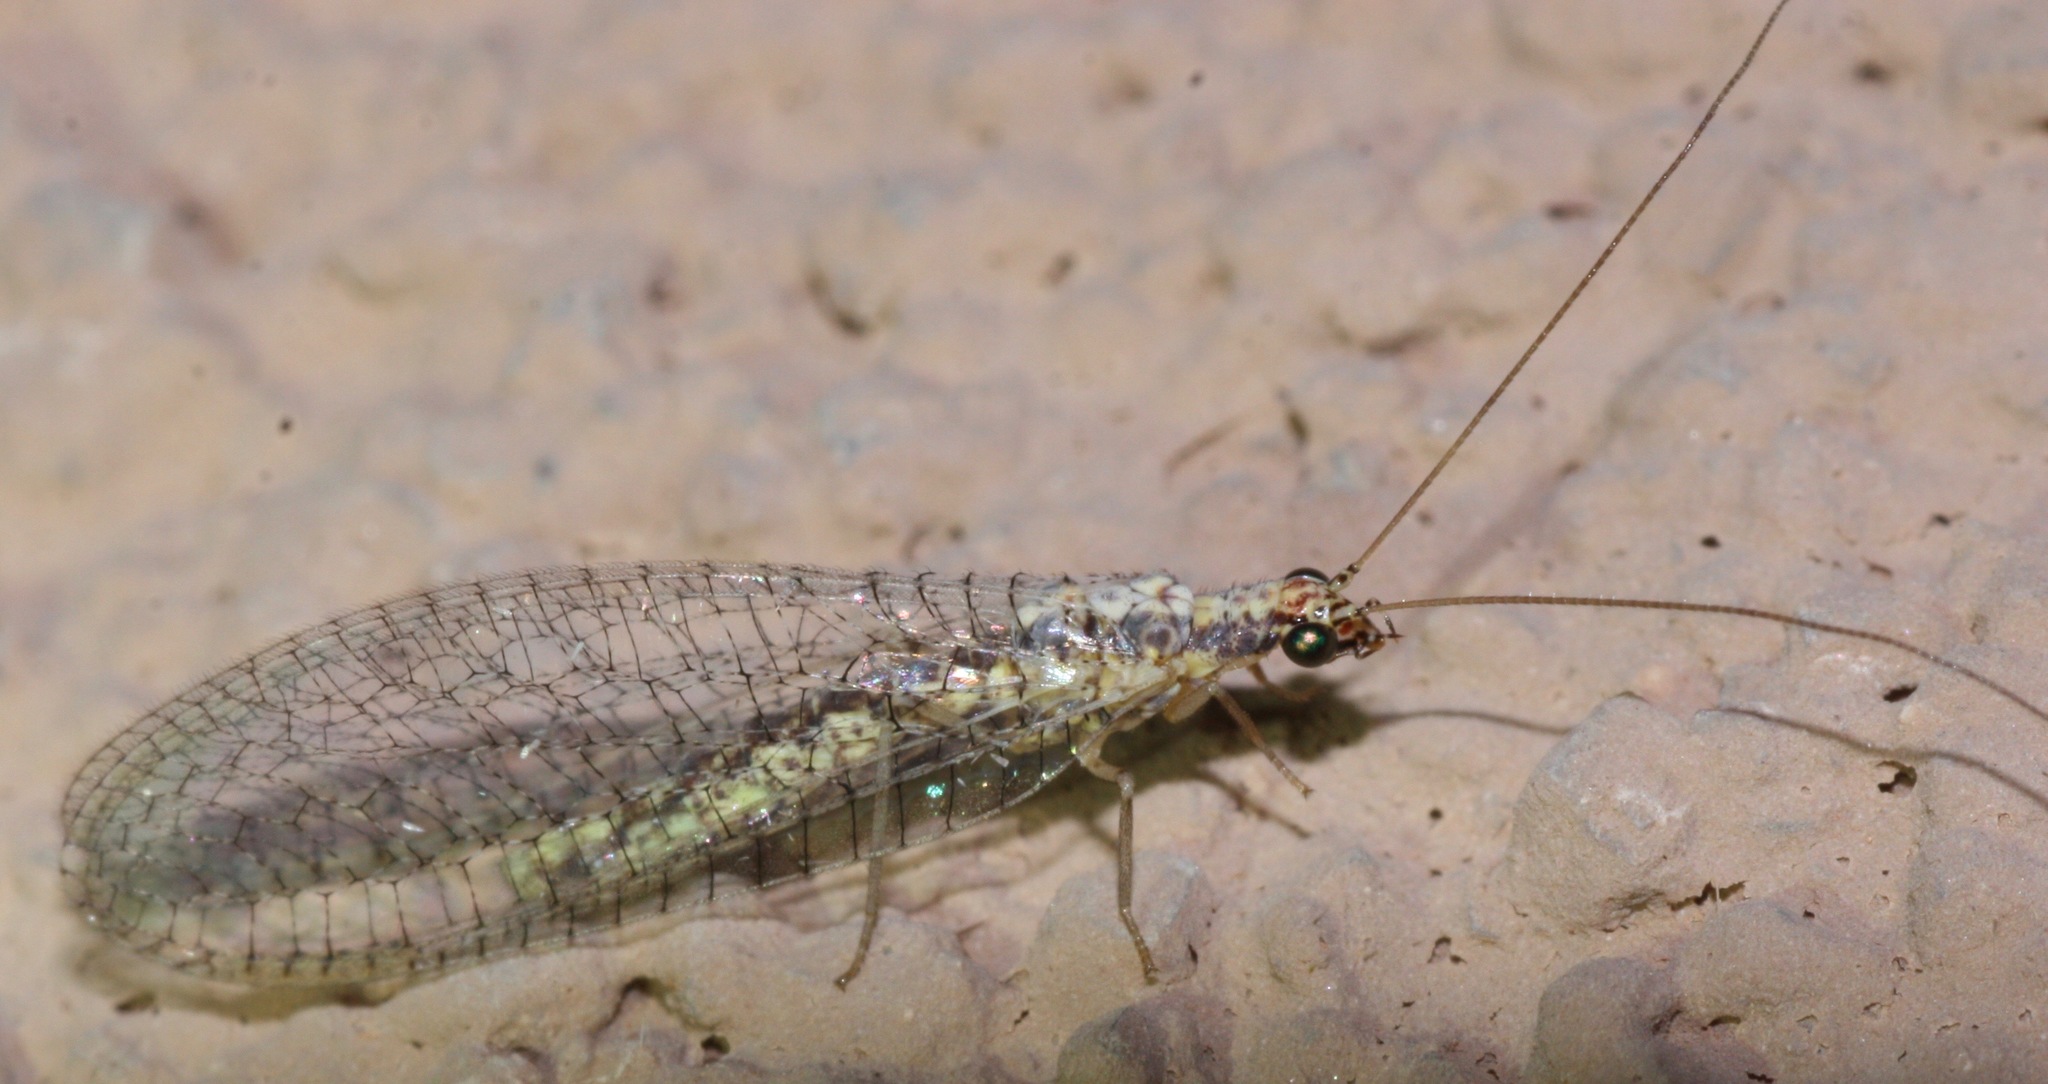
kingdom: Animalia
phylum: Arthropoda
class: Insecta
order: Neuroptera
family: Chrysopidae
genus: Eremochrysa
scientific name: Eremochrysa punctinervis
